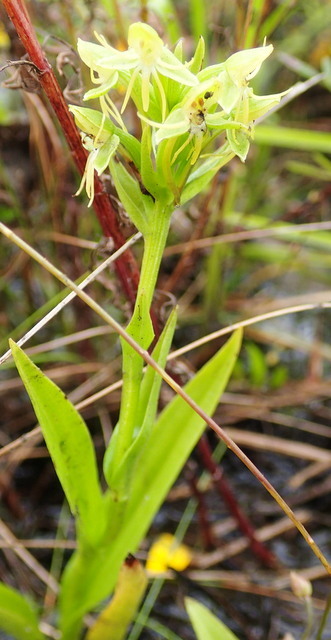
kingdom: Plantae
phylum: Tracheophyta
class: Liliopsida
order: Asparagales
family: Orchidaceae
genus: Habenaria
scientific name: Habenaria repens
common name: Water orchid
